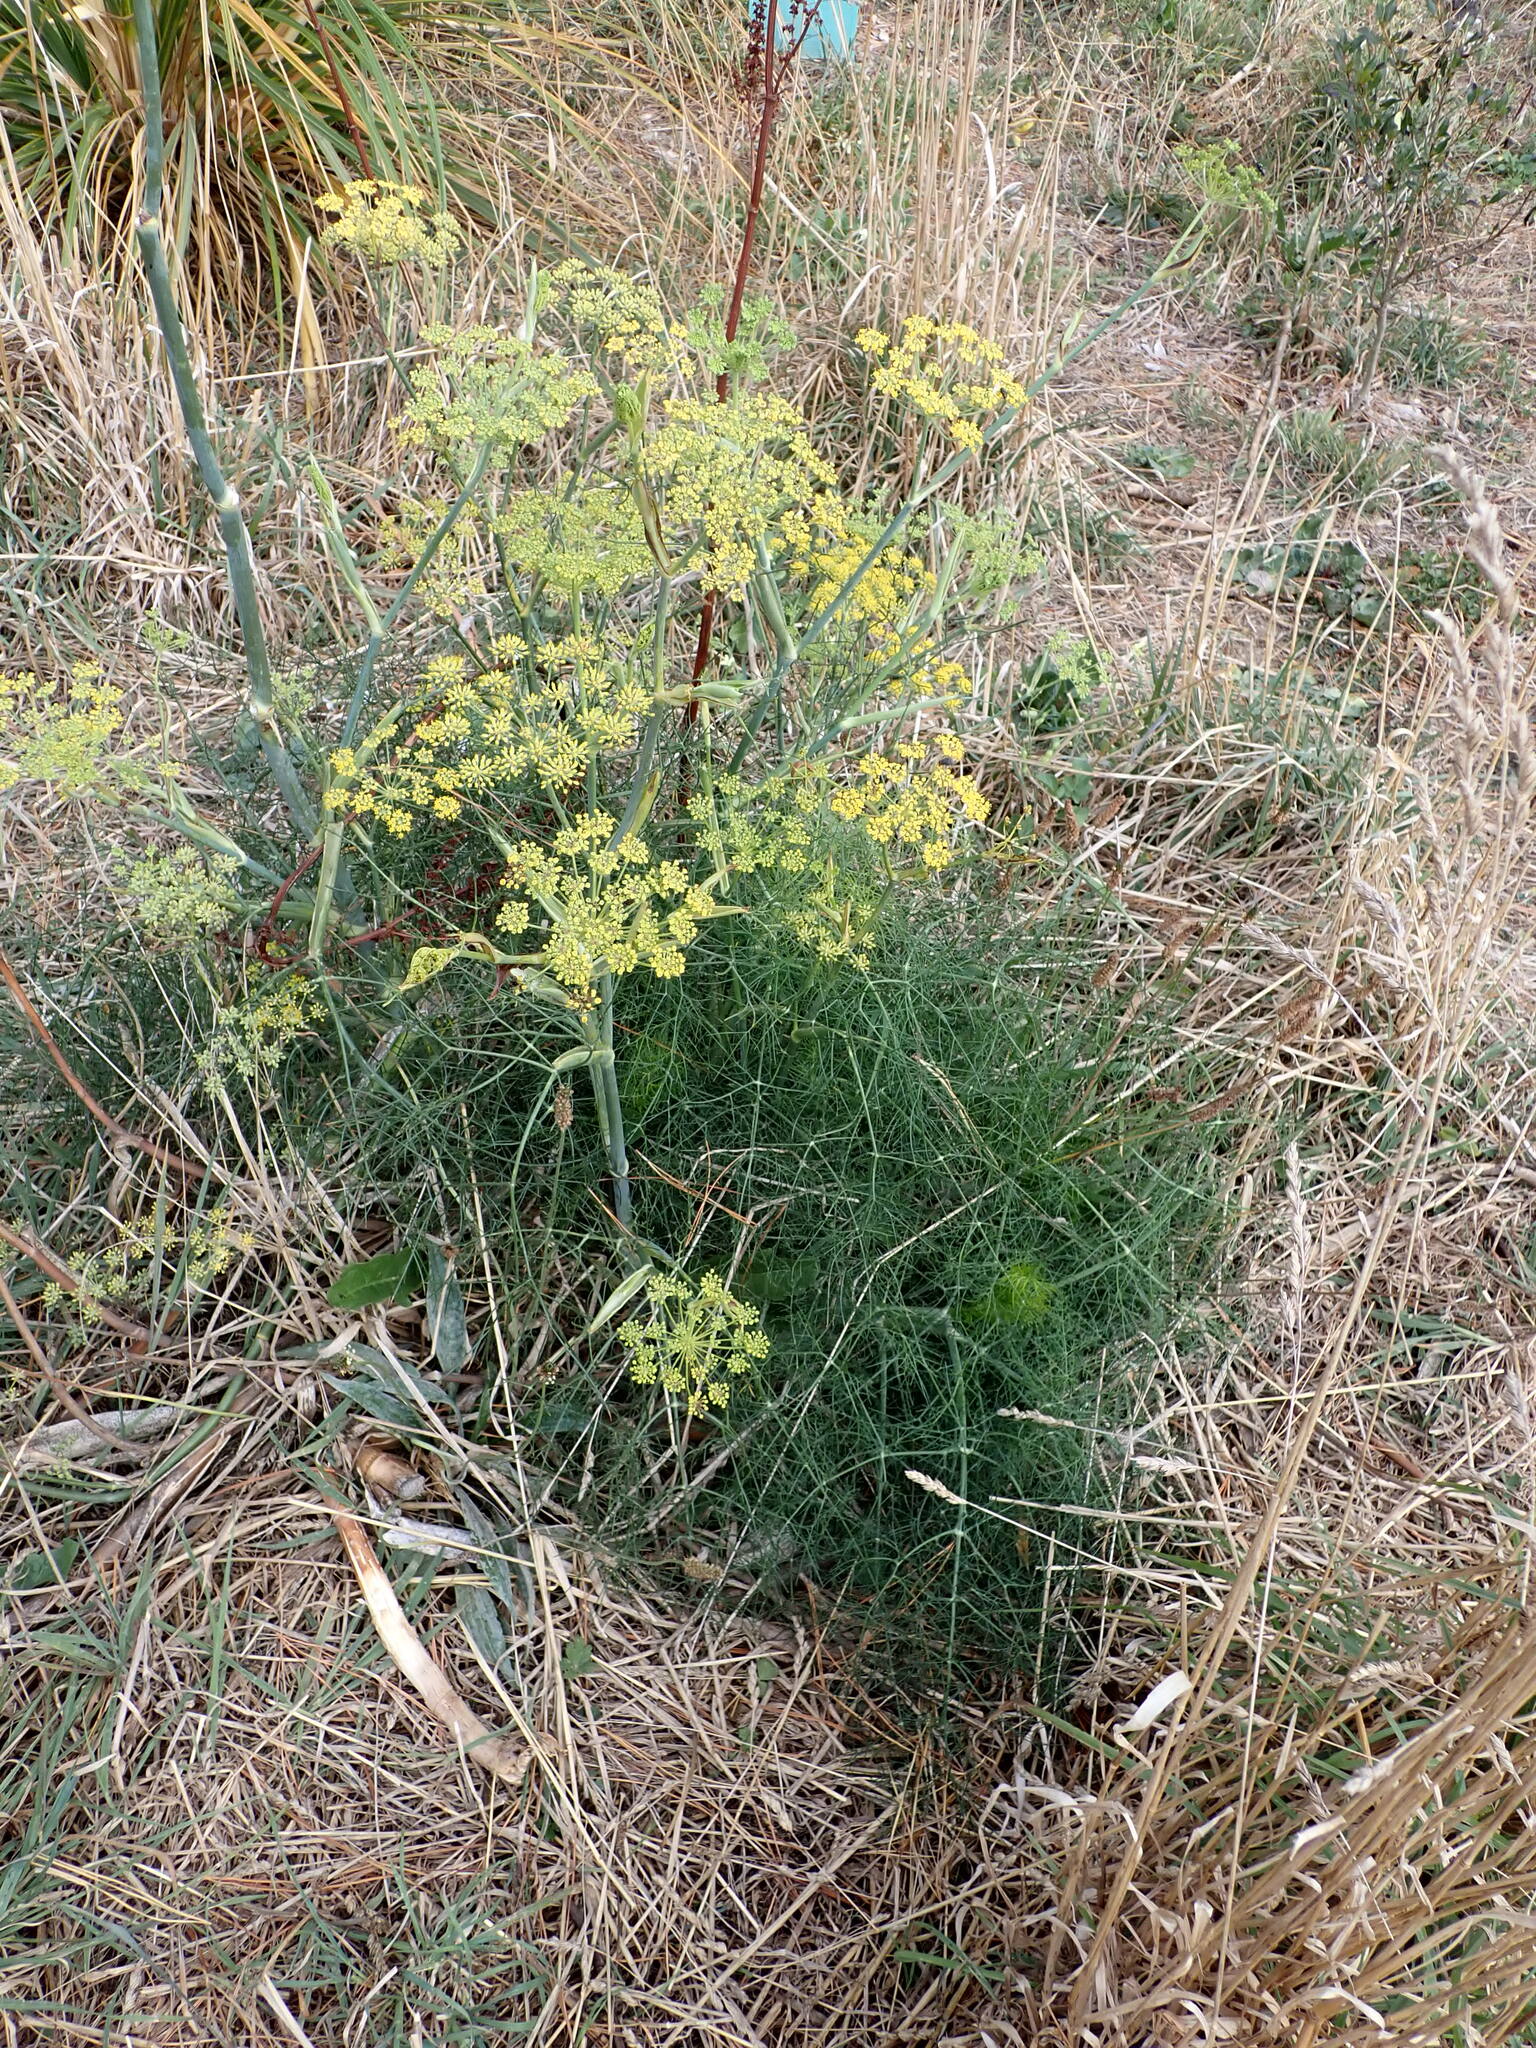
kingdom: Plantae
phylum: Tracheophyta
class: Magnoliopsida
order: Apiales
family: Apiaceae
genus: Foeniculum
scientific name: Foeniculum vulgare
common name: Fennel
